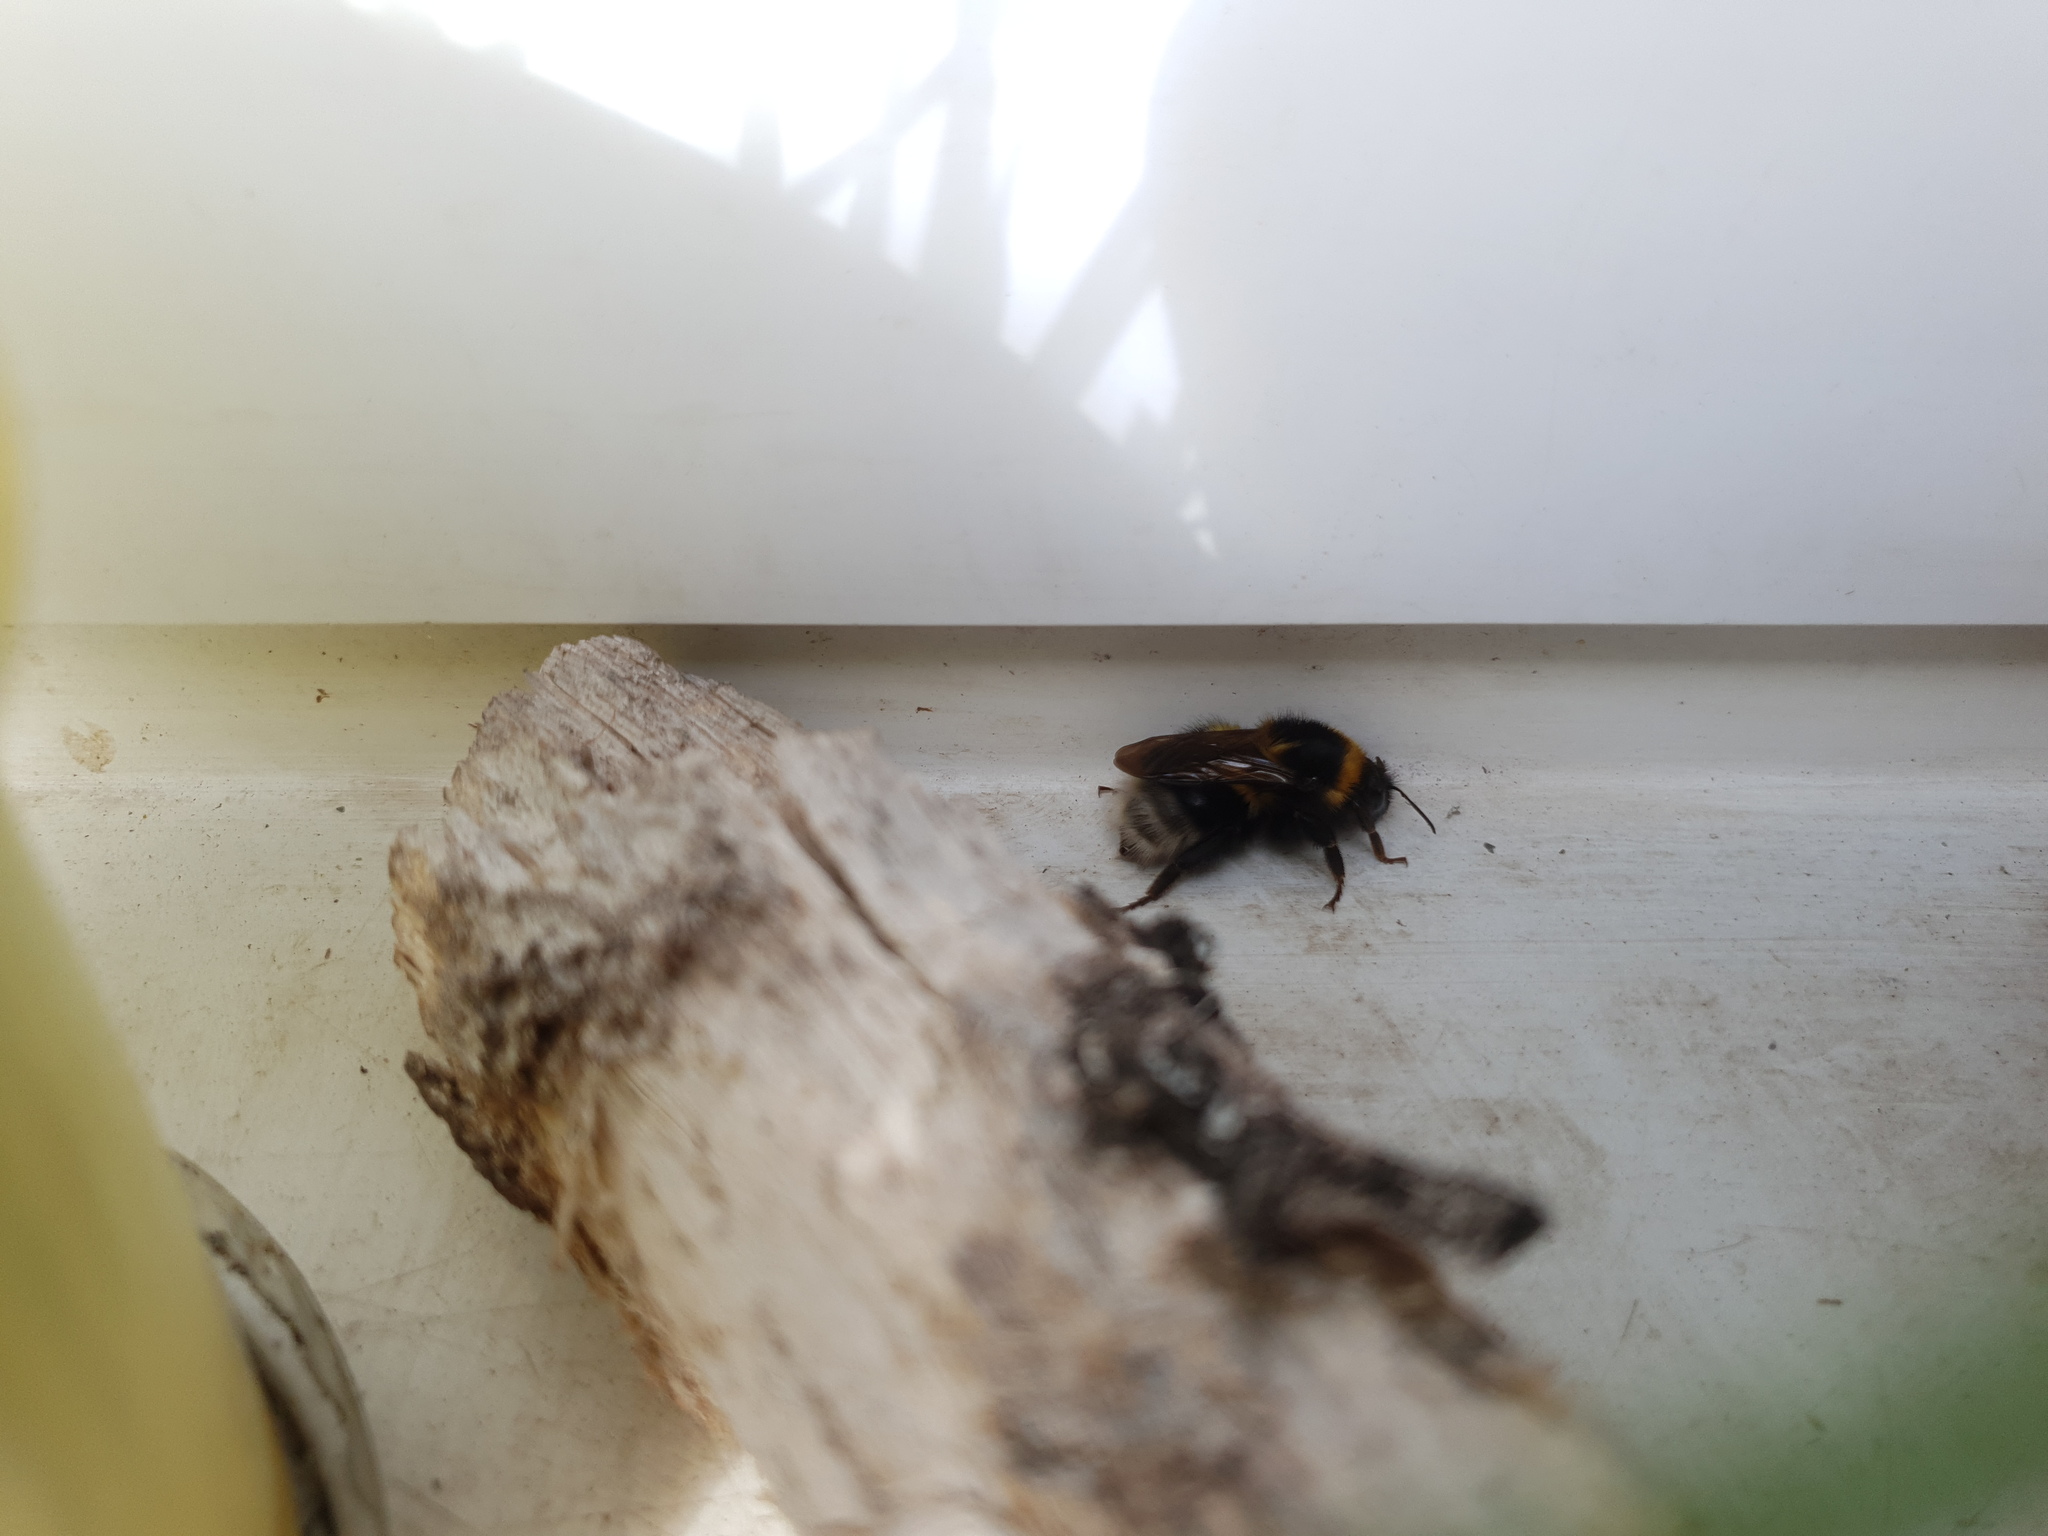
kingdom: Animalia
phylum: Arthropoda
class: Insecta
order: Hymenoptera
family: Apidae
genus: Bombus
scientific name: Bombus hortorum
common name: Garden bumblebee
